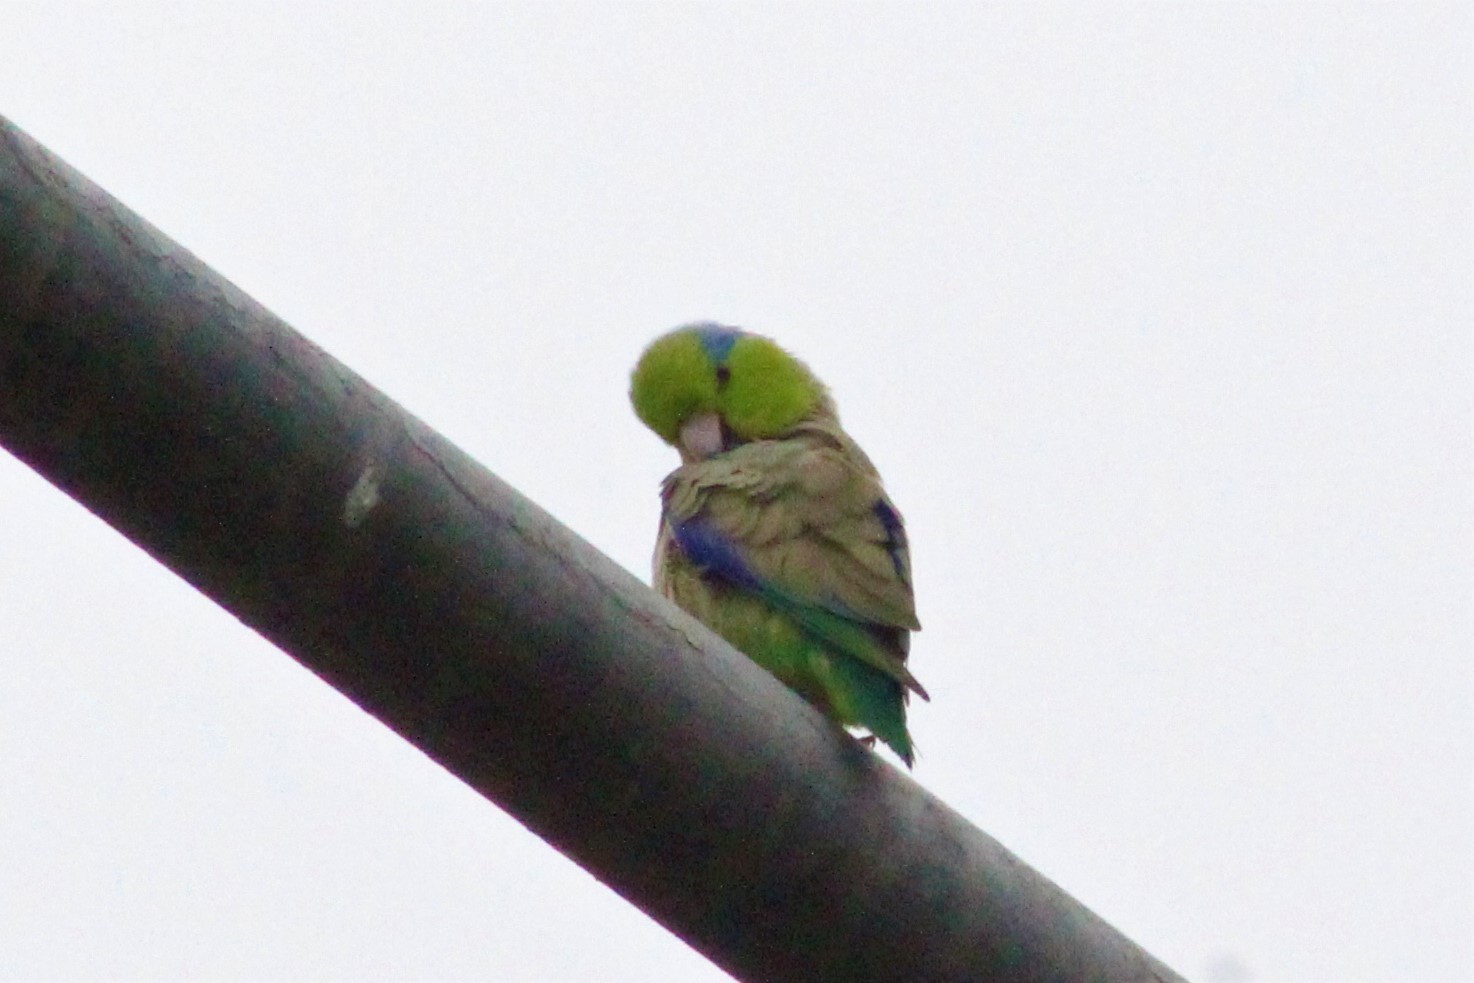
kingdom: Animalia
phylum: Chordata
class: Aves
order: Psittaciformes
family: Psittacidae
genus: Forpus
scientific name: Forpus coelestis
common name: Pacific parrotlet
